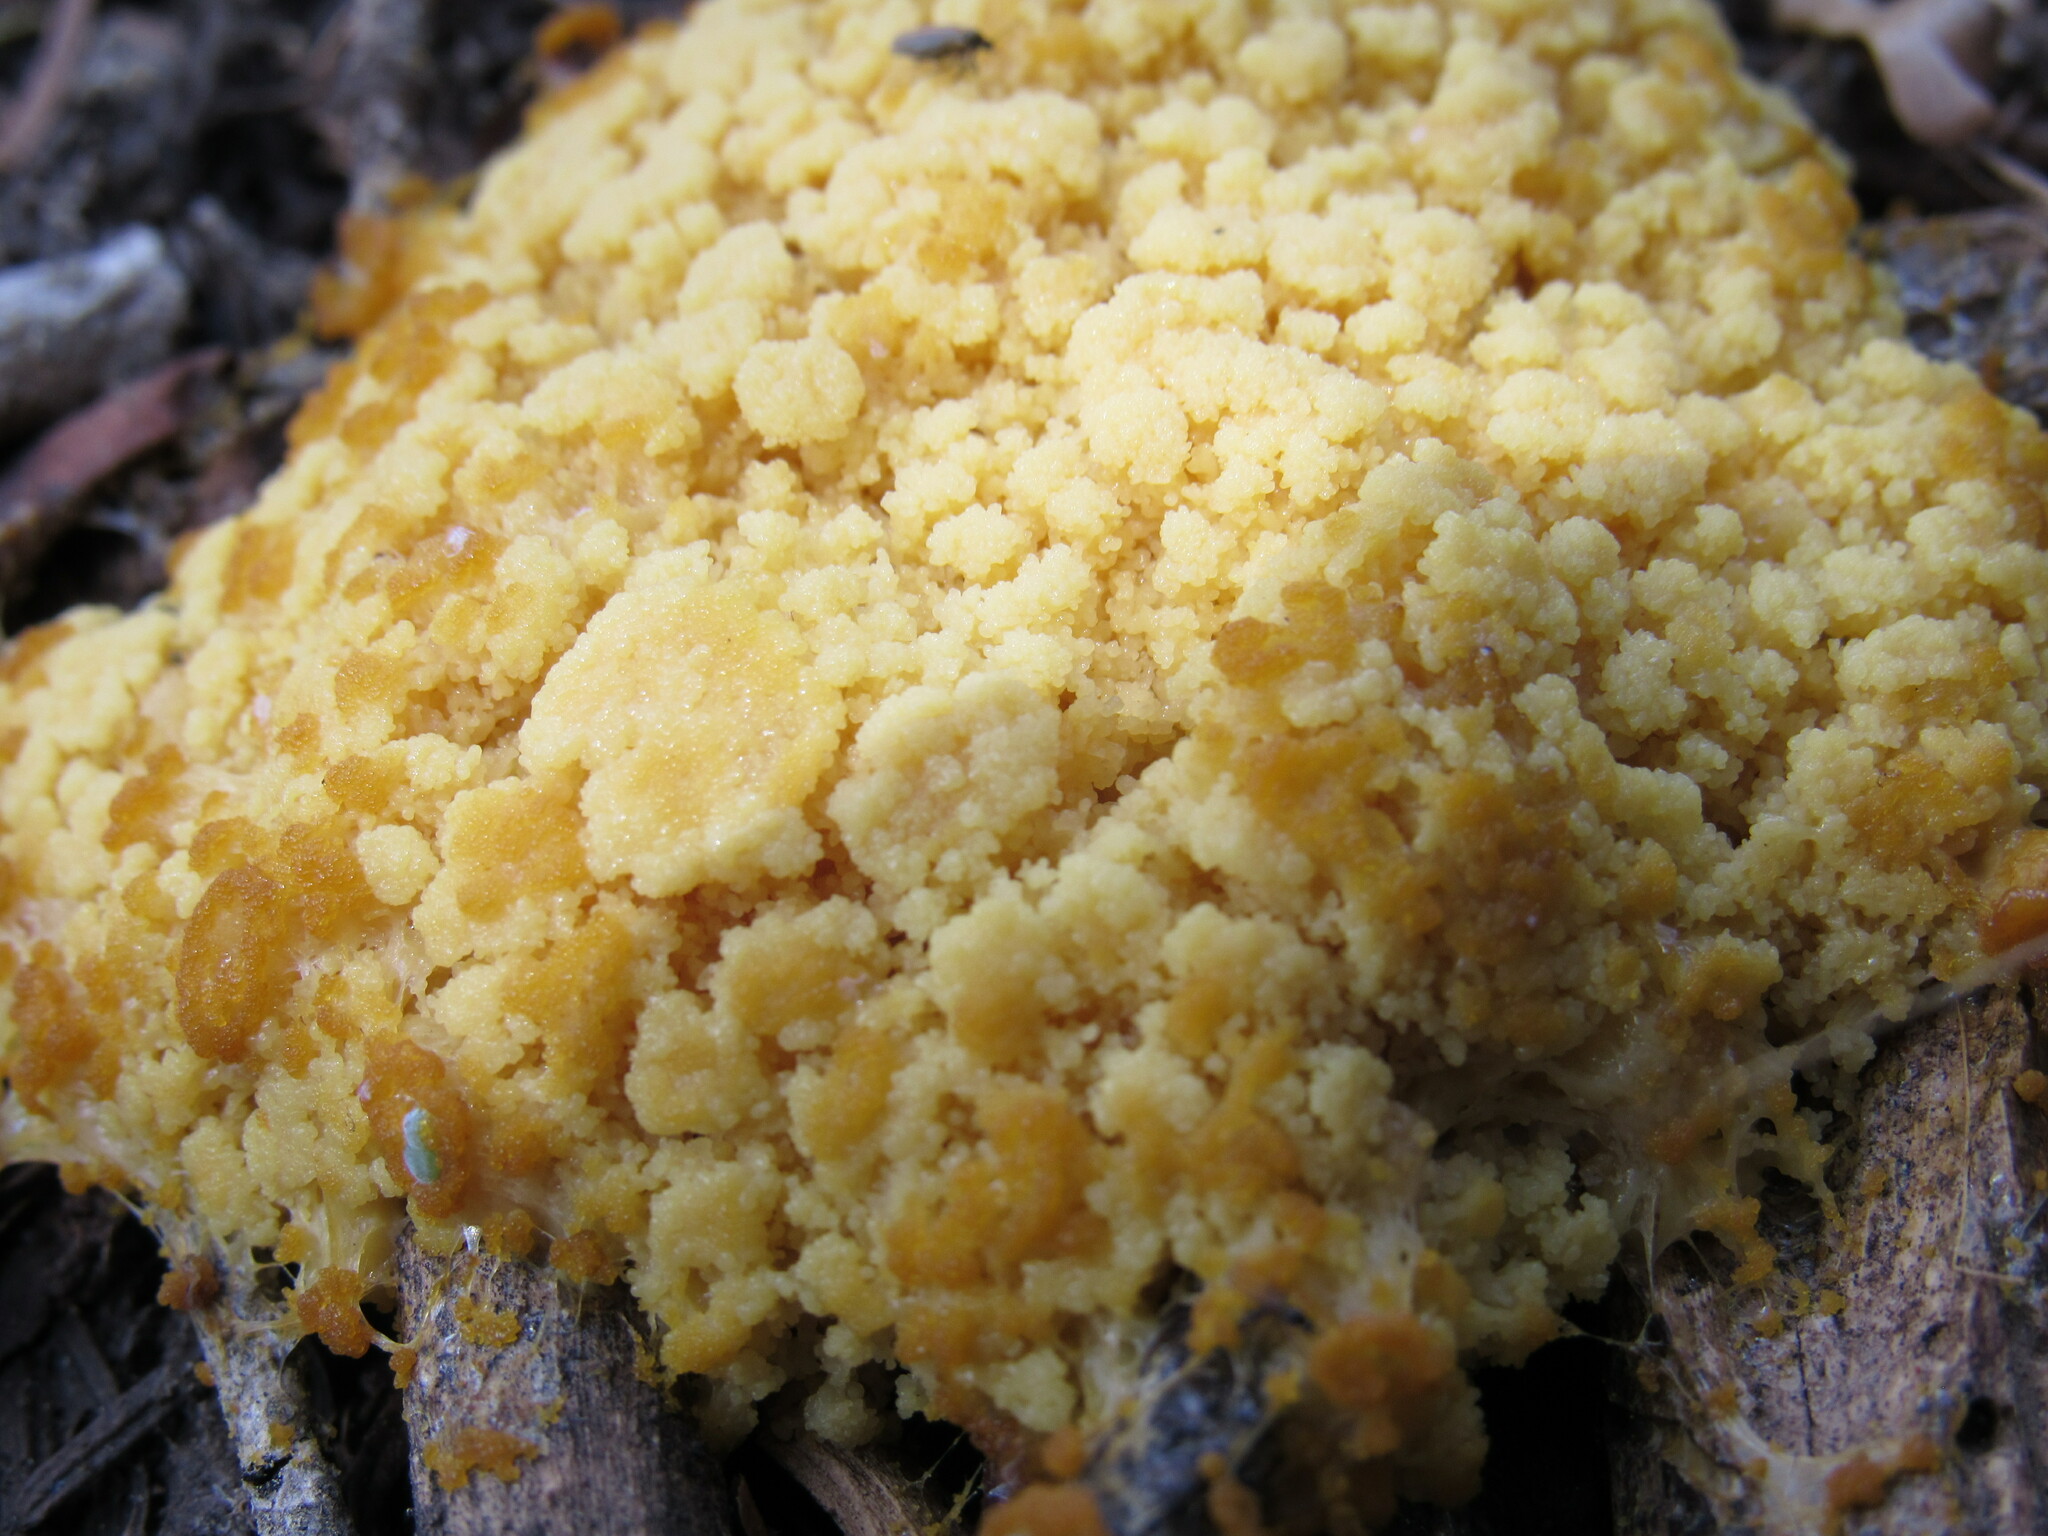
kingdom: Protozoa
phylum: Mycetozoa
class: Myxomycetes
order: Physarales
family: Physaraceae
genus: Fuligo
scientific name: Fuligo septica
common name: Dog vomit slime mold
